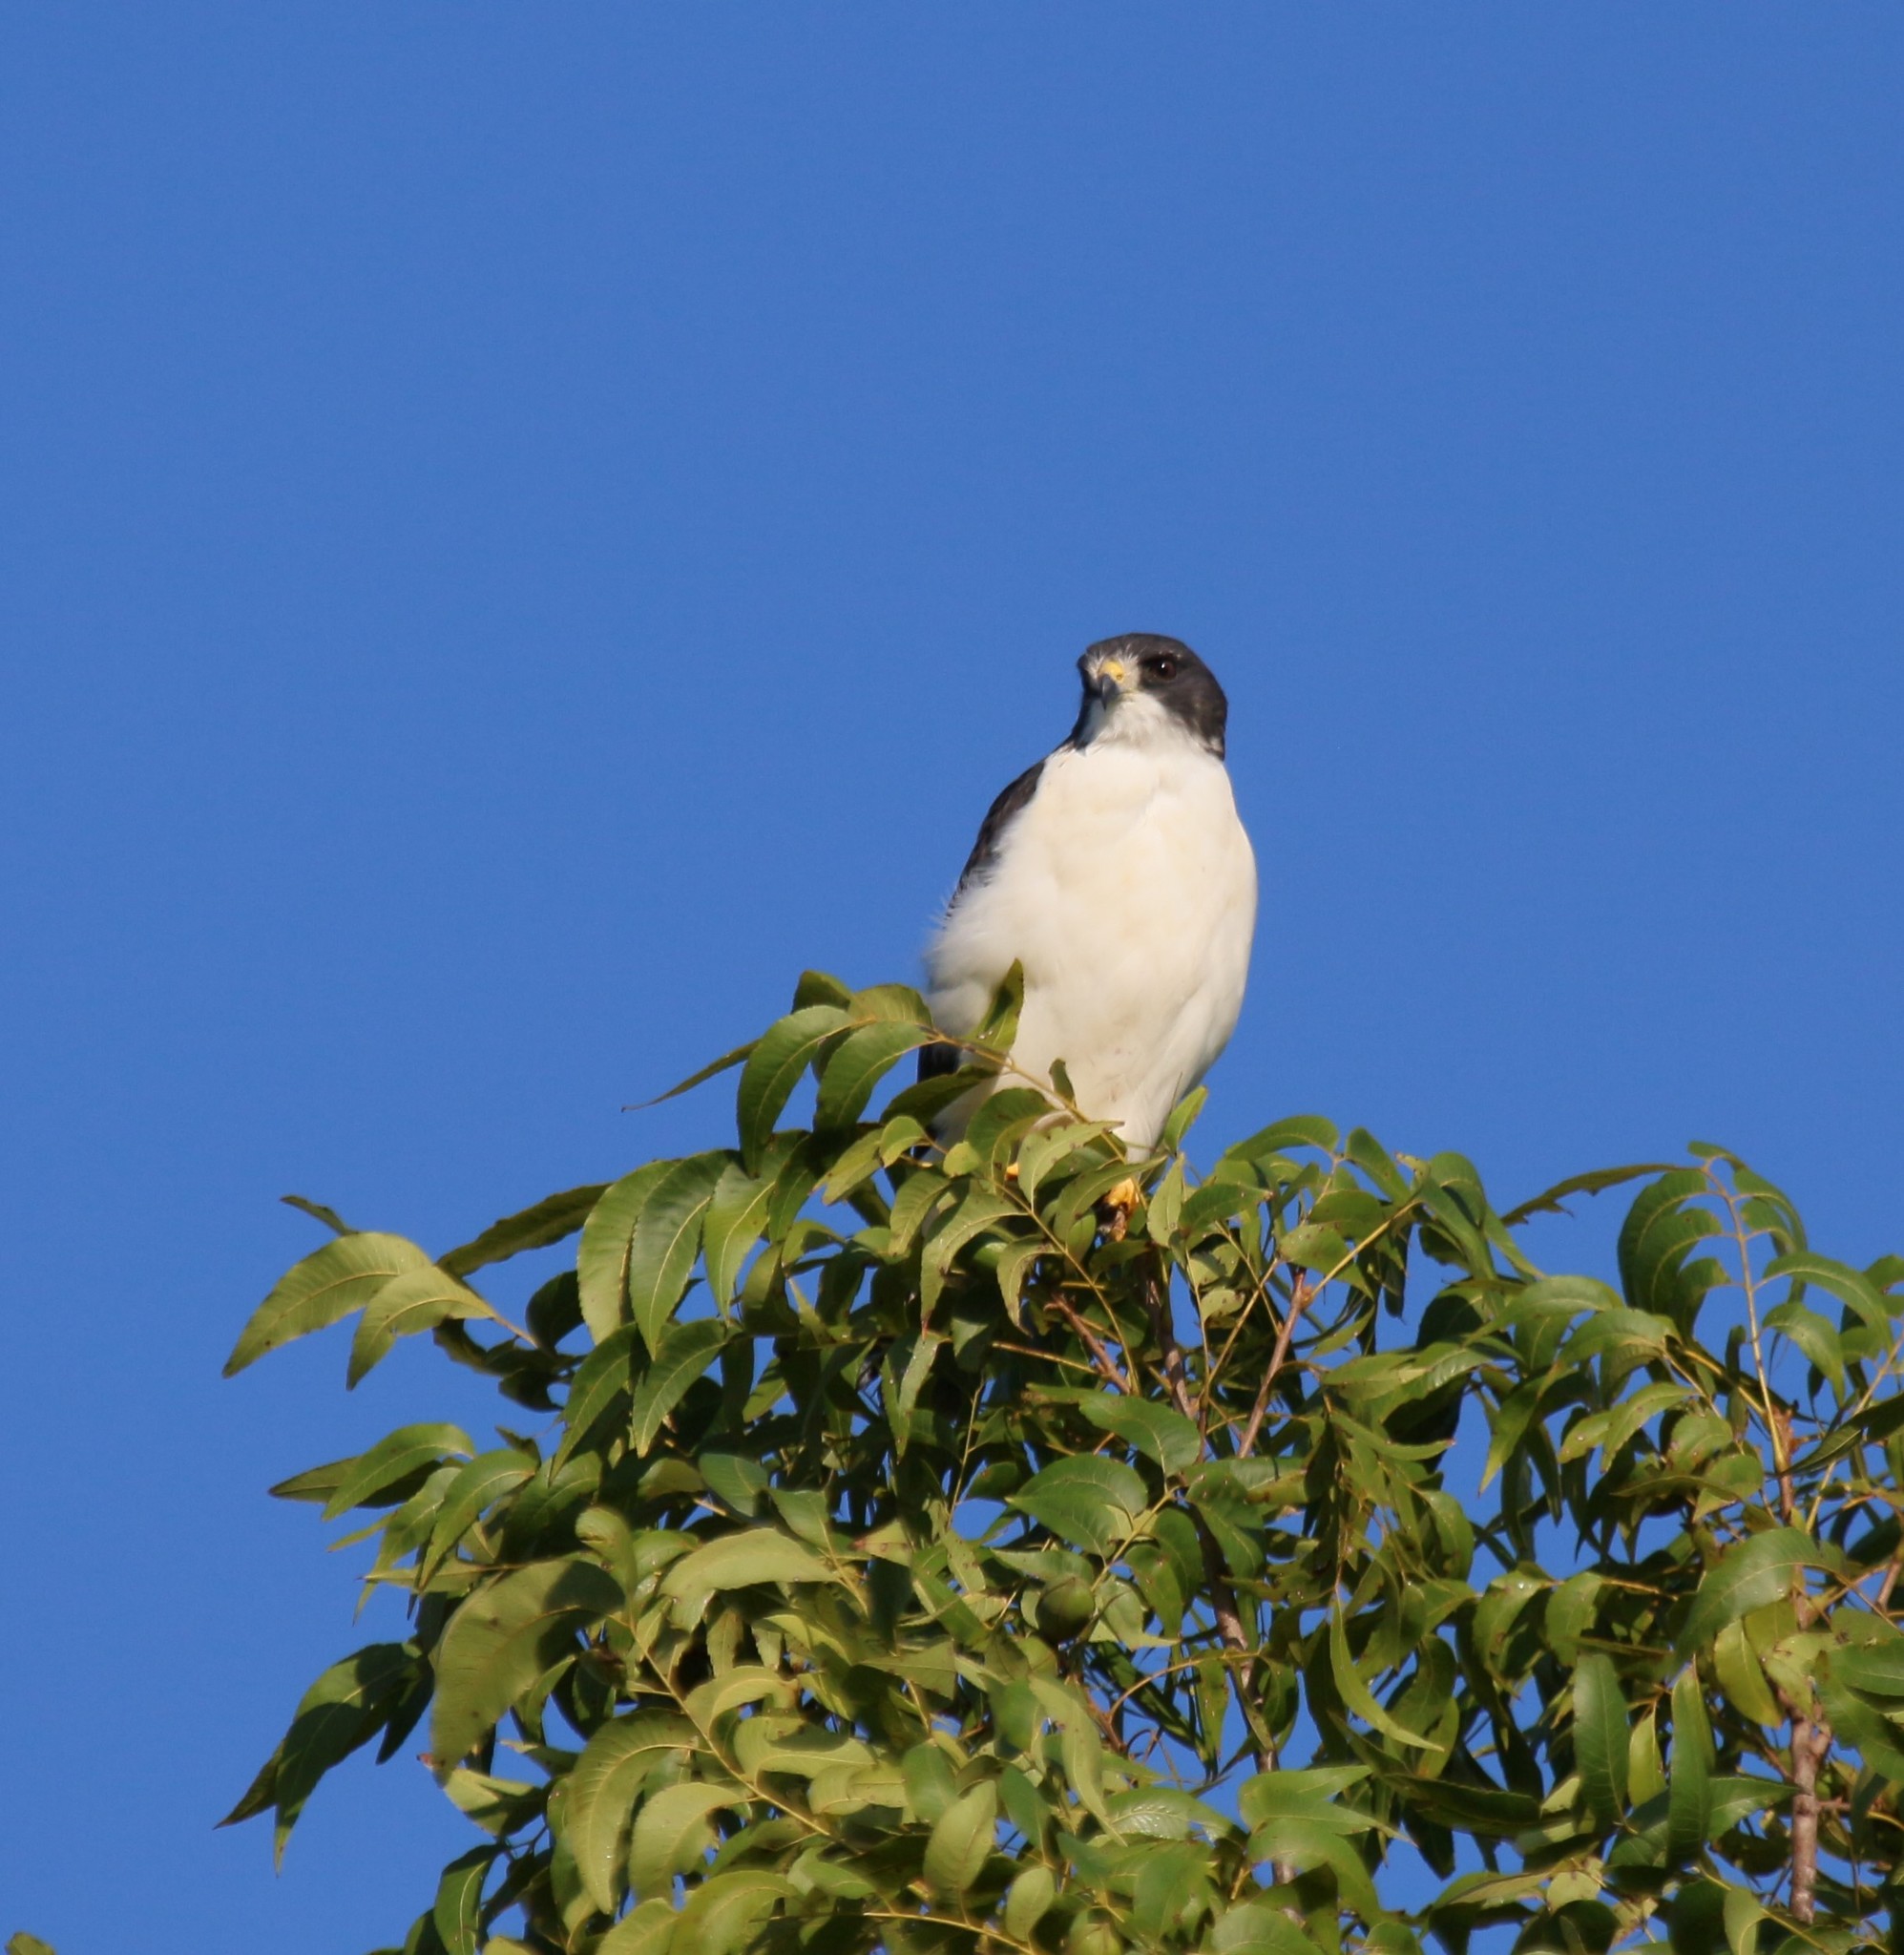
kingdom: Animalia
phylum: Chordata
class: Aves
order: Accipitriformes
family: Accipitridae
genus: Buteo
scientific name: Buteo brachyurus
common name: Short-tailed hawk
